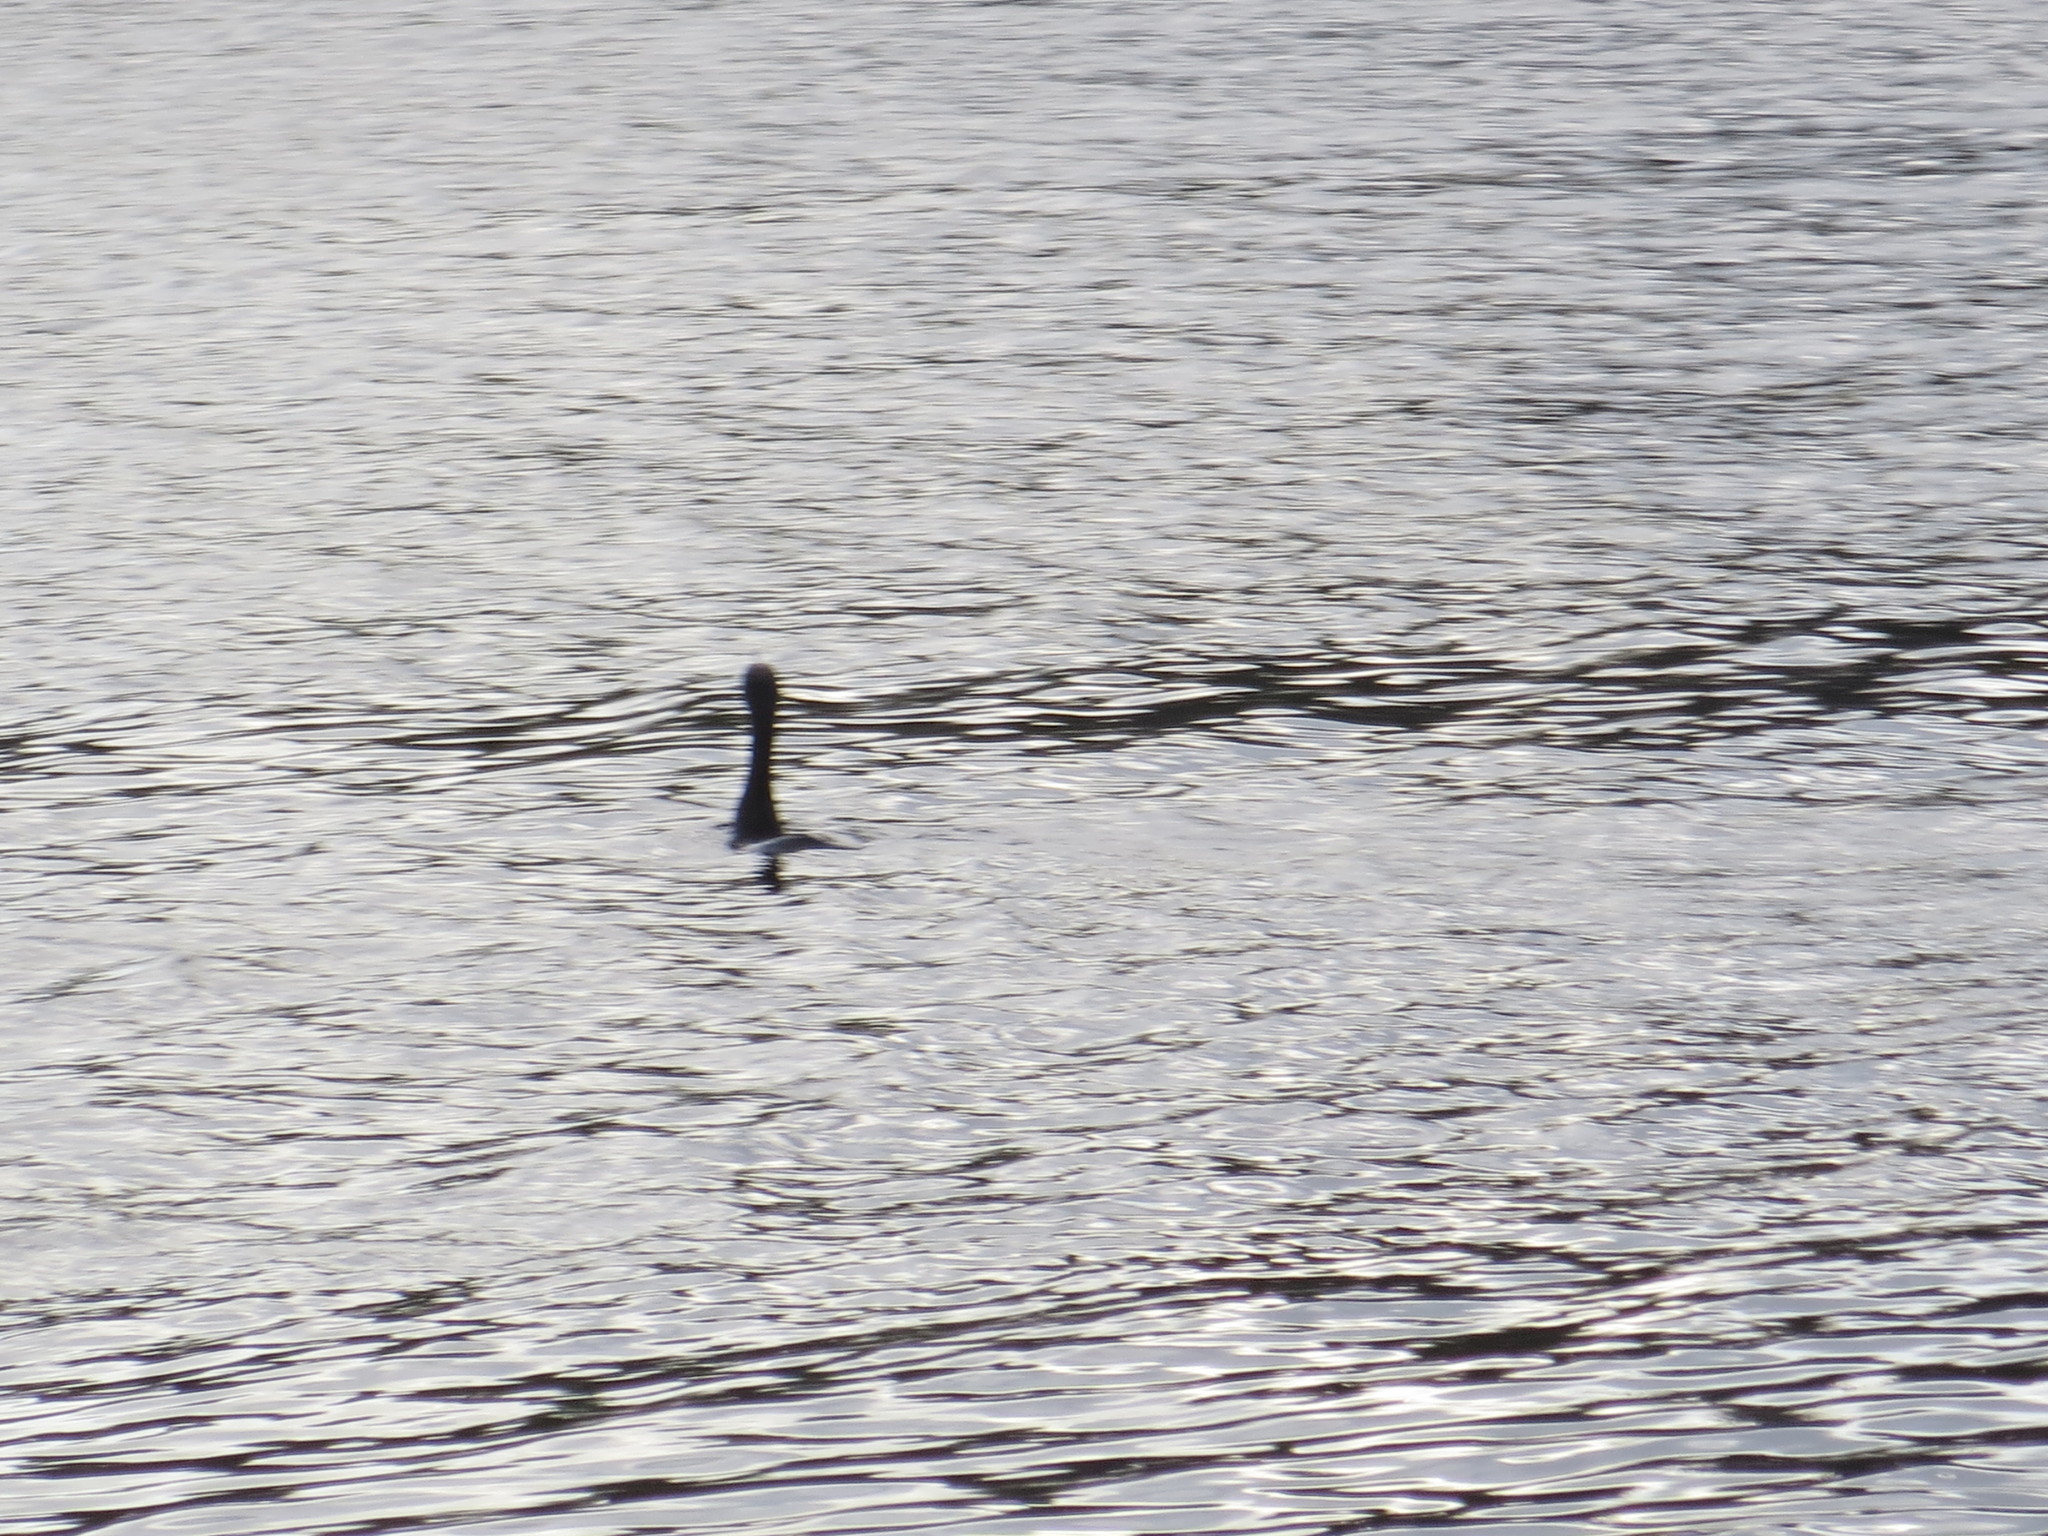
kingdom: Animalia
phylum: Chordata
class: Aves
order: Suliformes
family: Phalacrocoracidae
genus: Phalacrocorax
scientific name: Phalacrocorax auritus
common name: Double-crested cormorant
